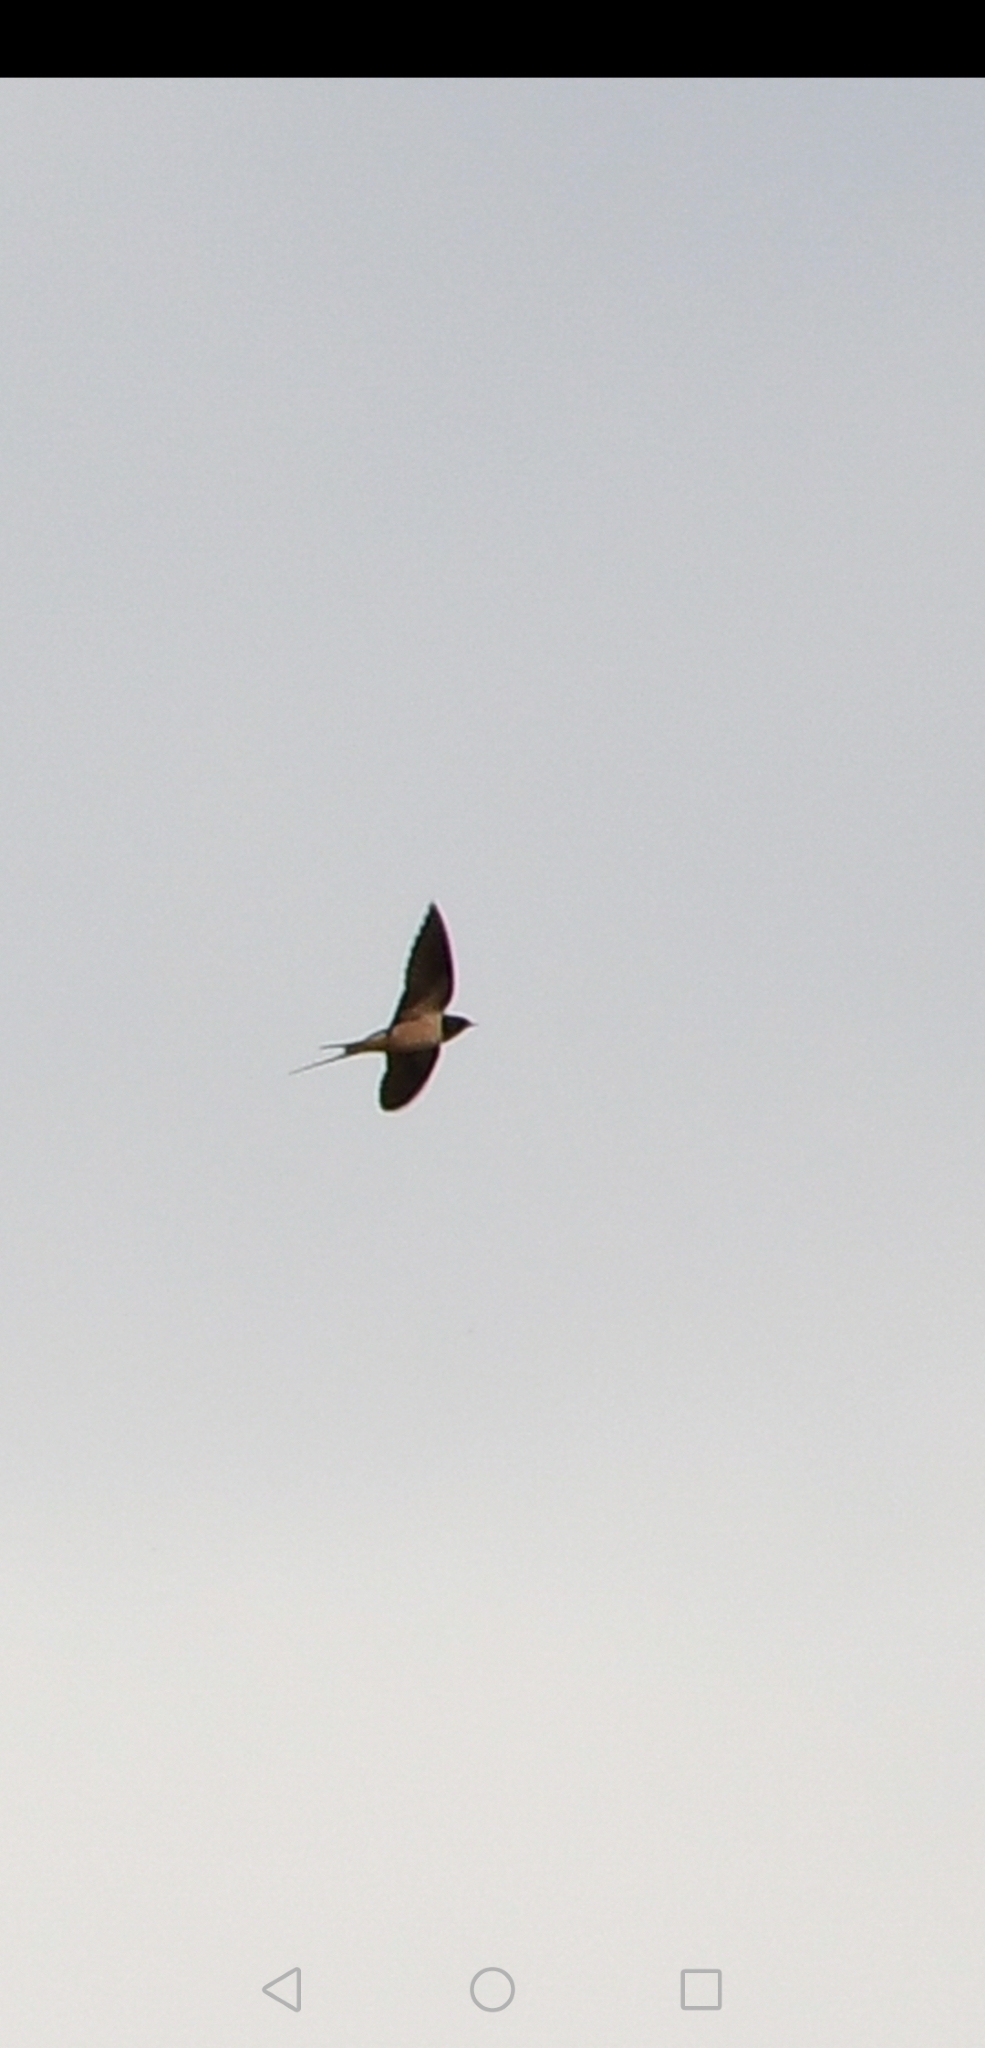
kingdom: Animalia
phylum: Chordata
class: Aves
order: Passeriformes
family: Hirundinidae
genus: Hirundo
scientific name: Hirundo rustica
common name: Barn swallow
